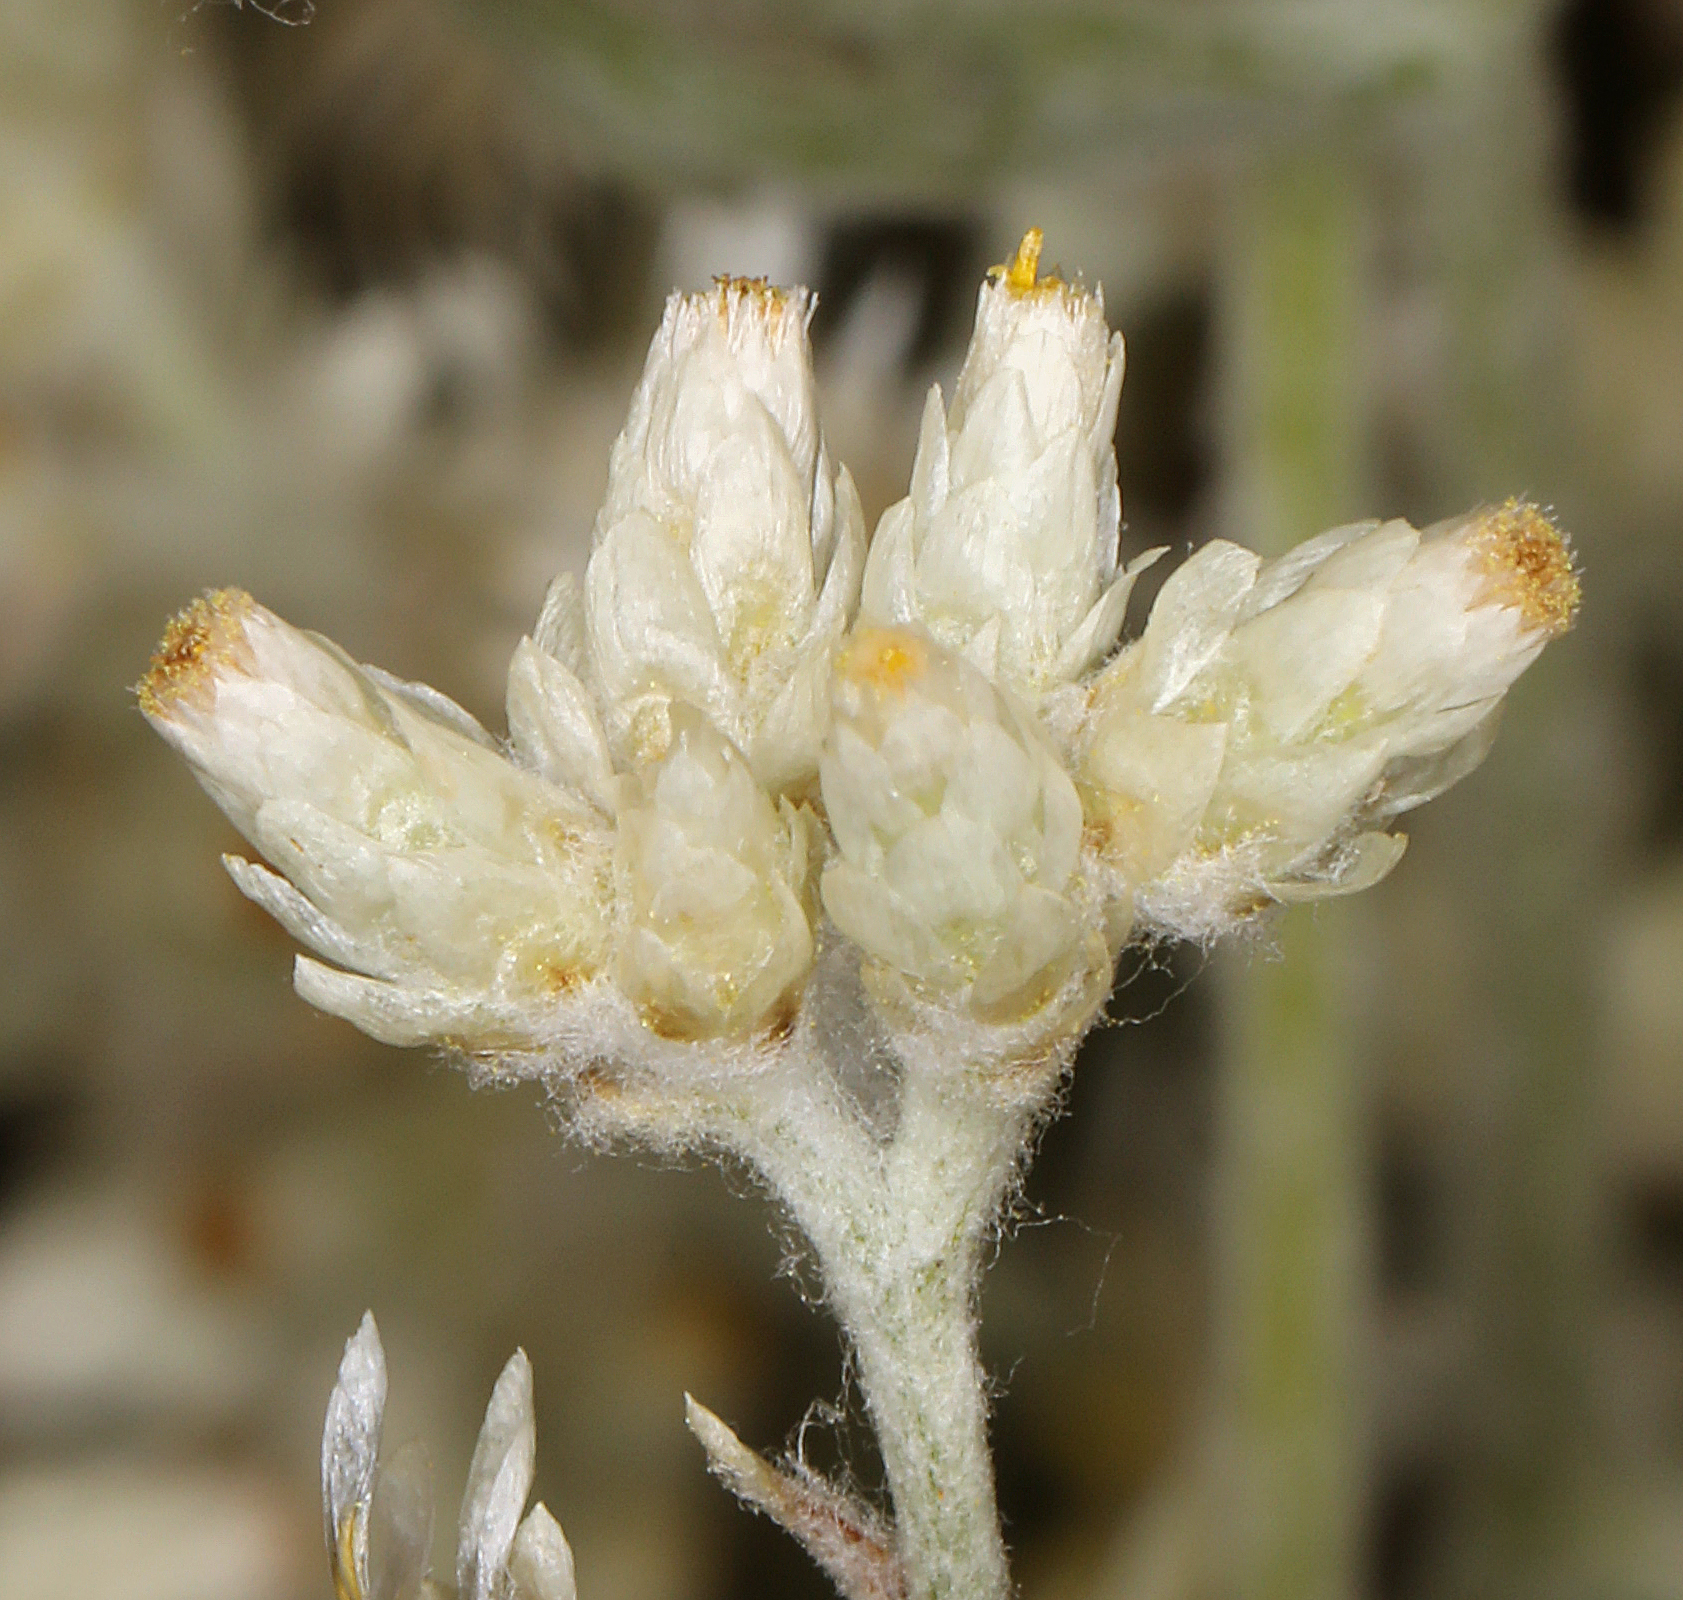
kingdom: Plantae
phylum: Tracheophyta
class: Magnoliopsida
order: Asterales
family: Asteraceae
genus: Pseudognaphalium
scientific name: Pseudognaphalium canescens
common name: Wright's rabbit-tobacco
